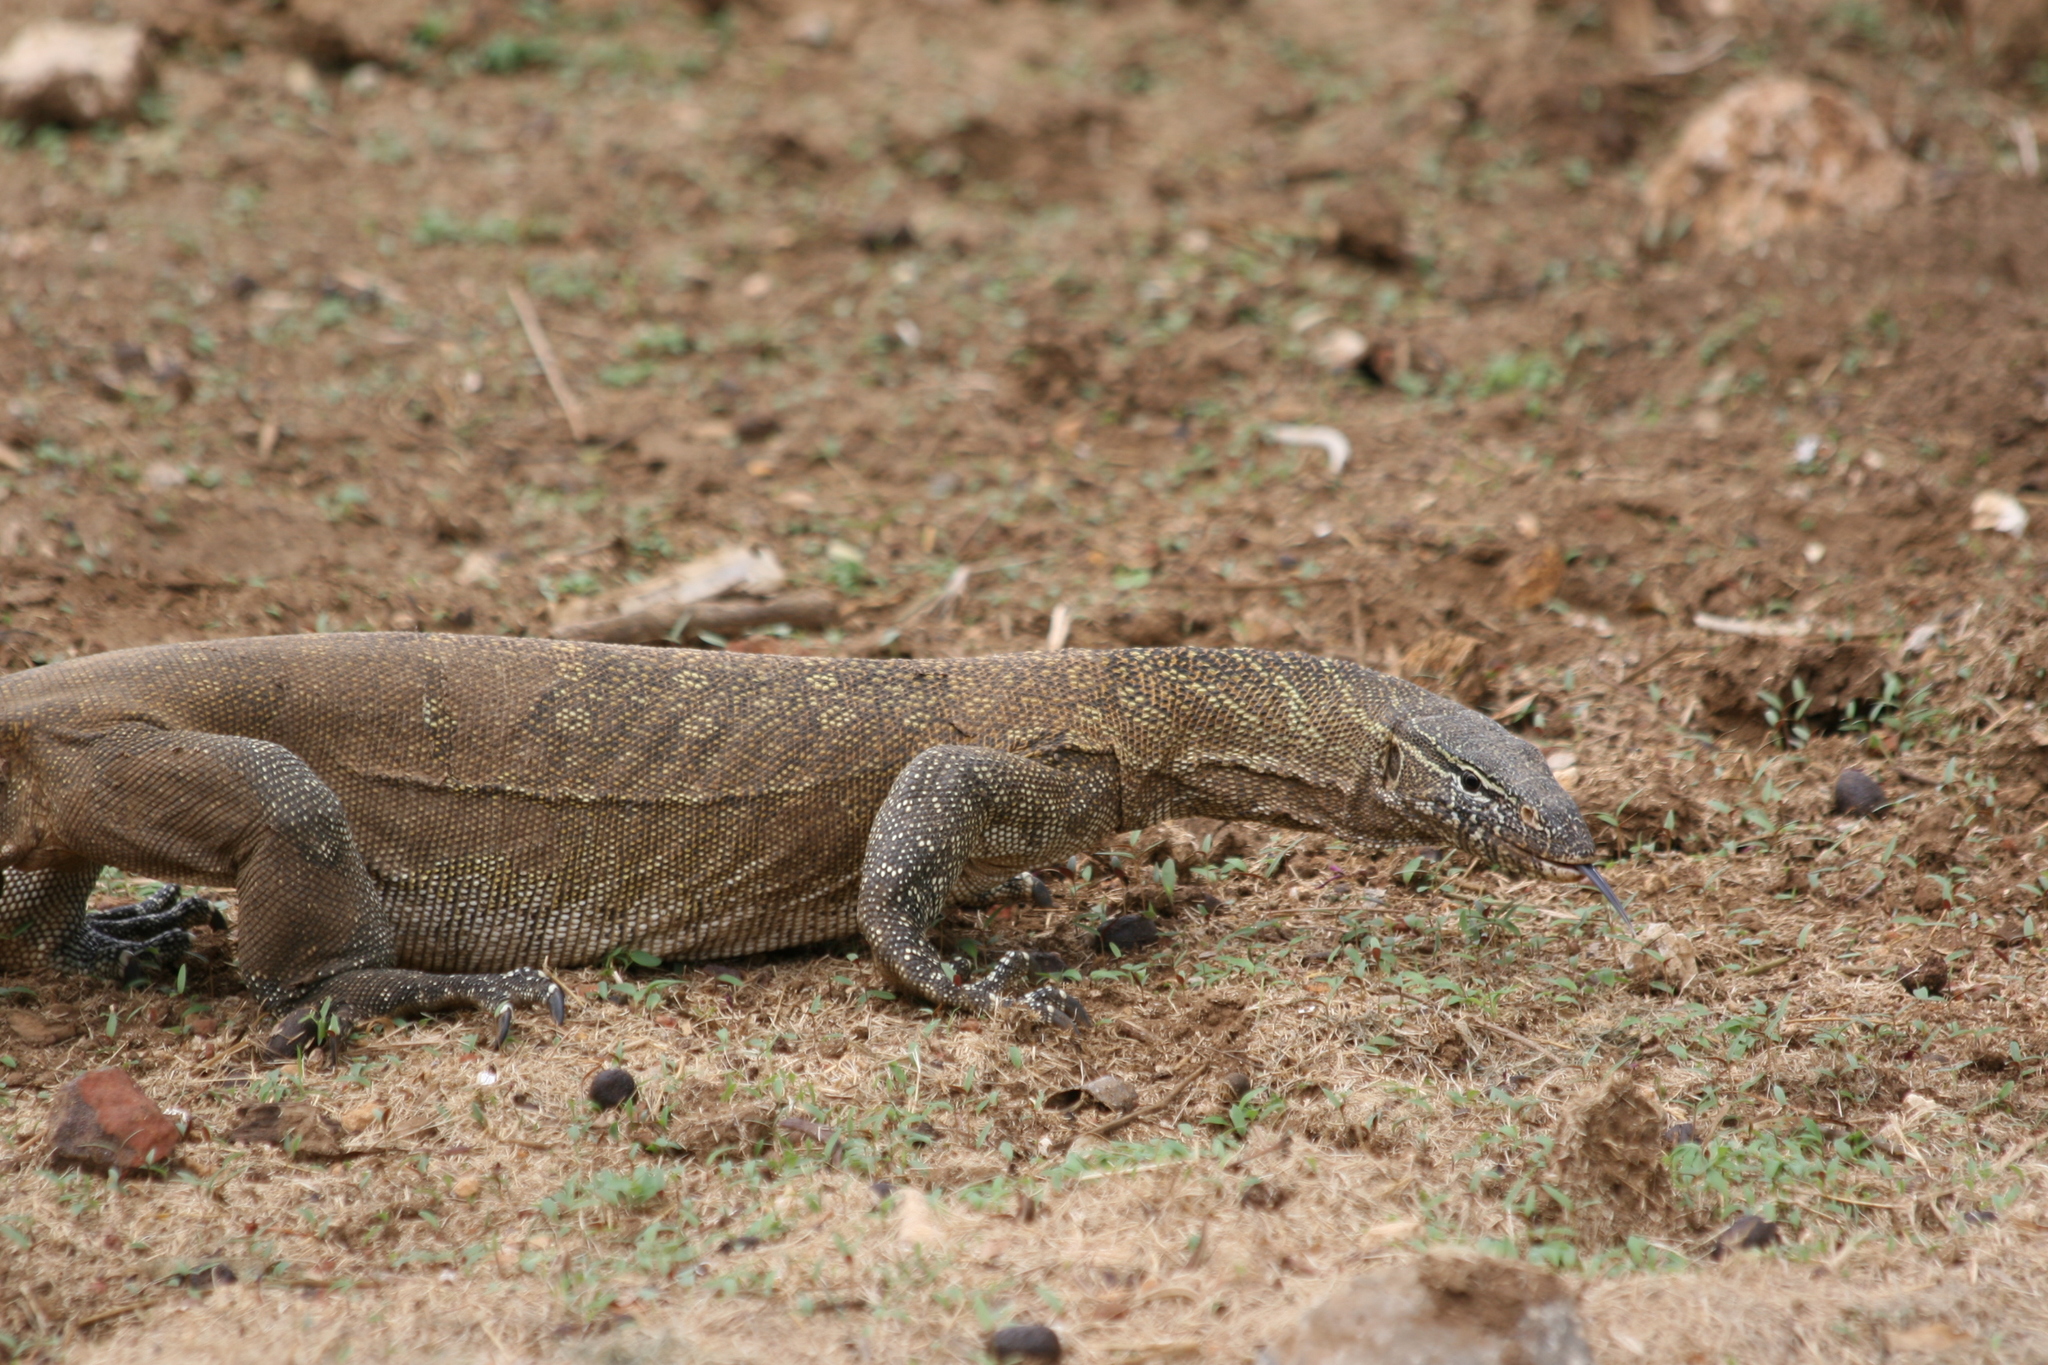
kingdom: Animalia
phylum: Chordata
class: Squamata
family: Varanidae
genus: Varanus
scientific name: Varanus niloticus
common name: Nile monitor
